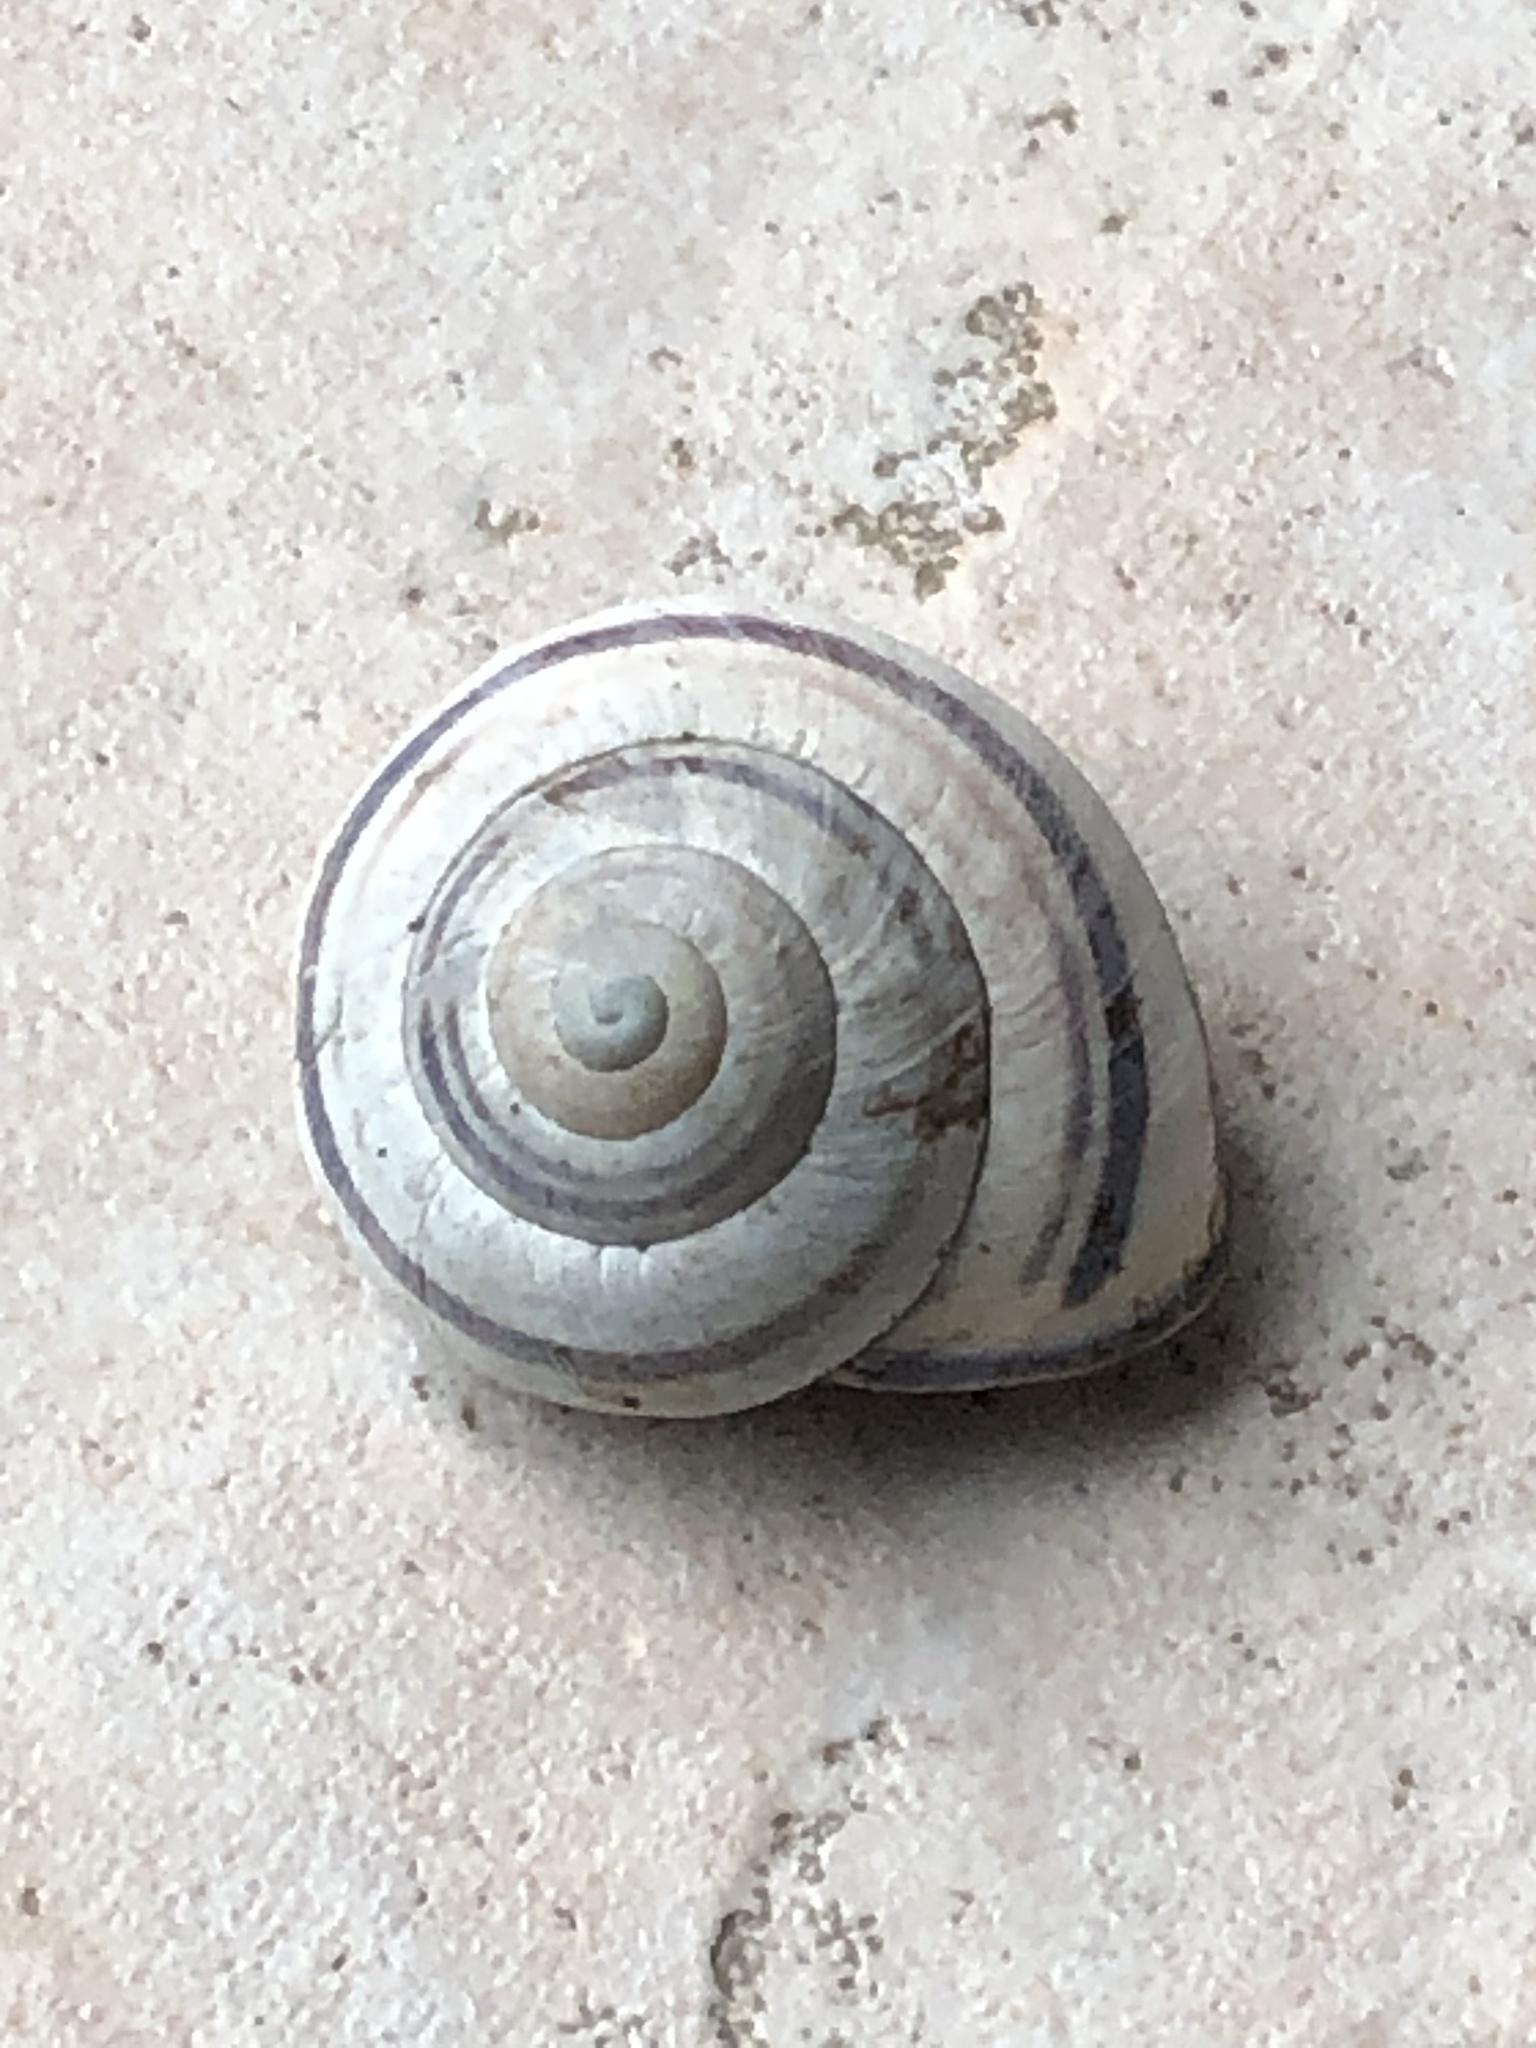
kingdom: Animalia
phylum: Mollusca
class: Gastropoda
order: Stylommatophora
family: Helicidae
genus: Cepaea
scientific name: Cepaea nemoralis
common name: Grovesnail
